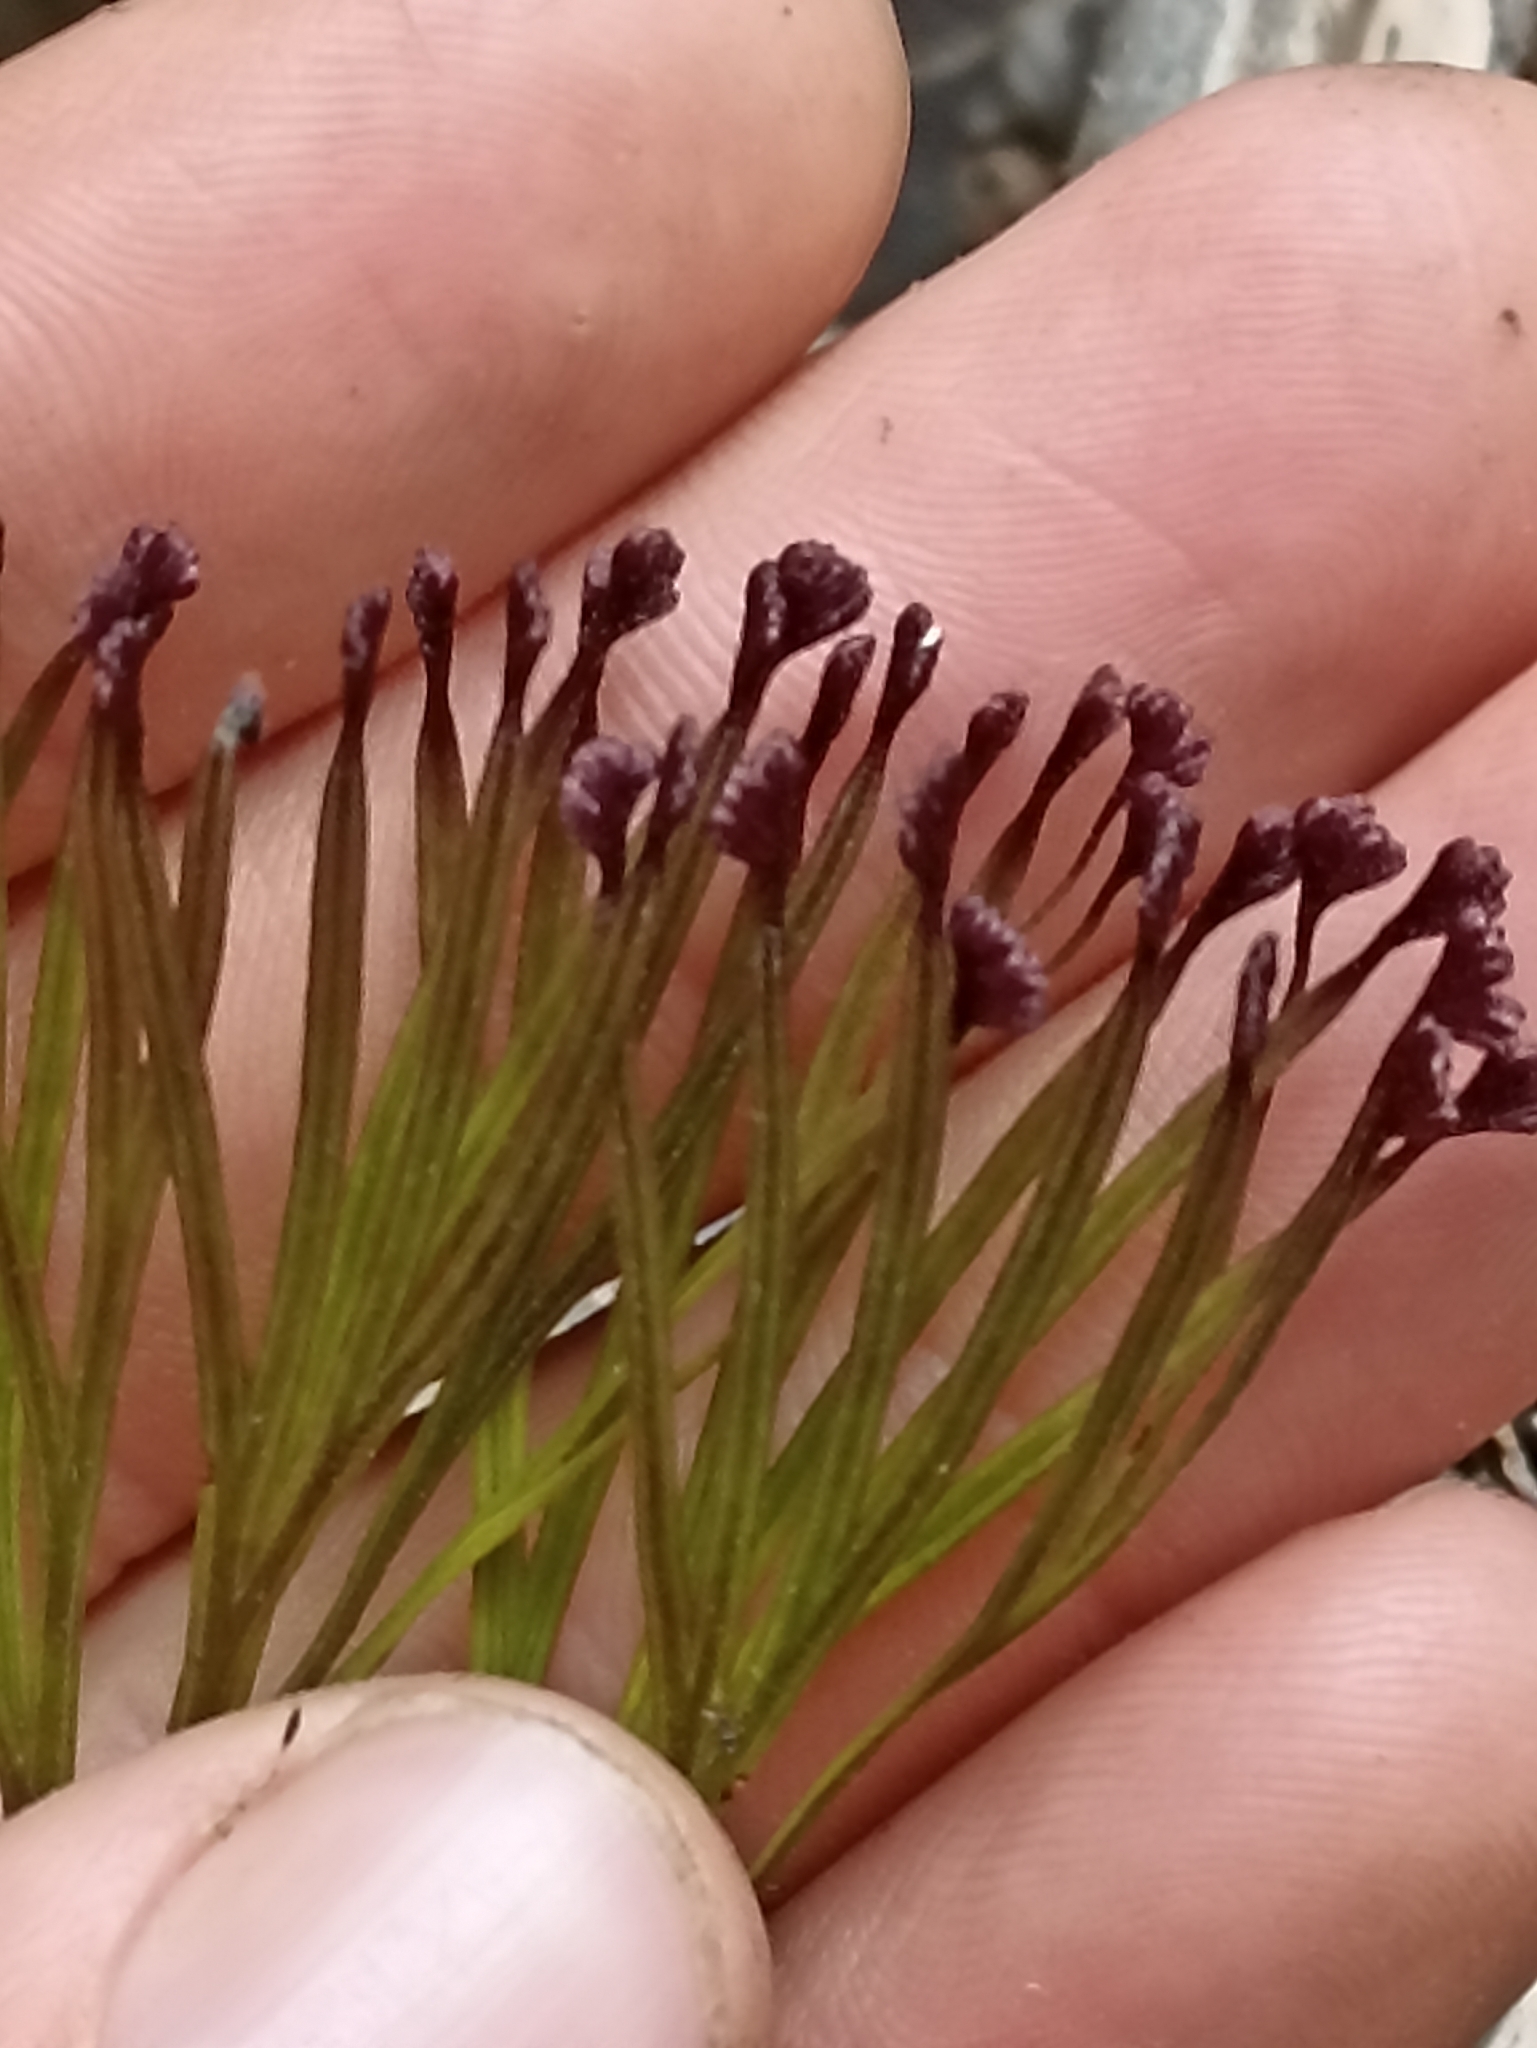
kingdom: Plantae
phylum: Tracheophyta
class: Polypodiopsida
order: Schizaeales
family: Schizaeaceae
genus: Schizaea
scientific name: Schizaea dichotoma
